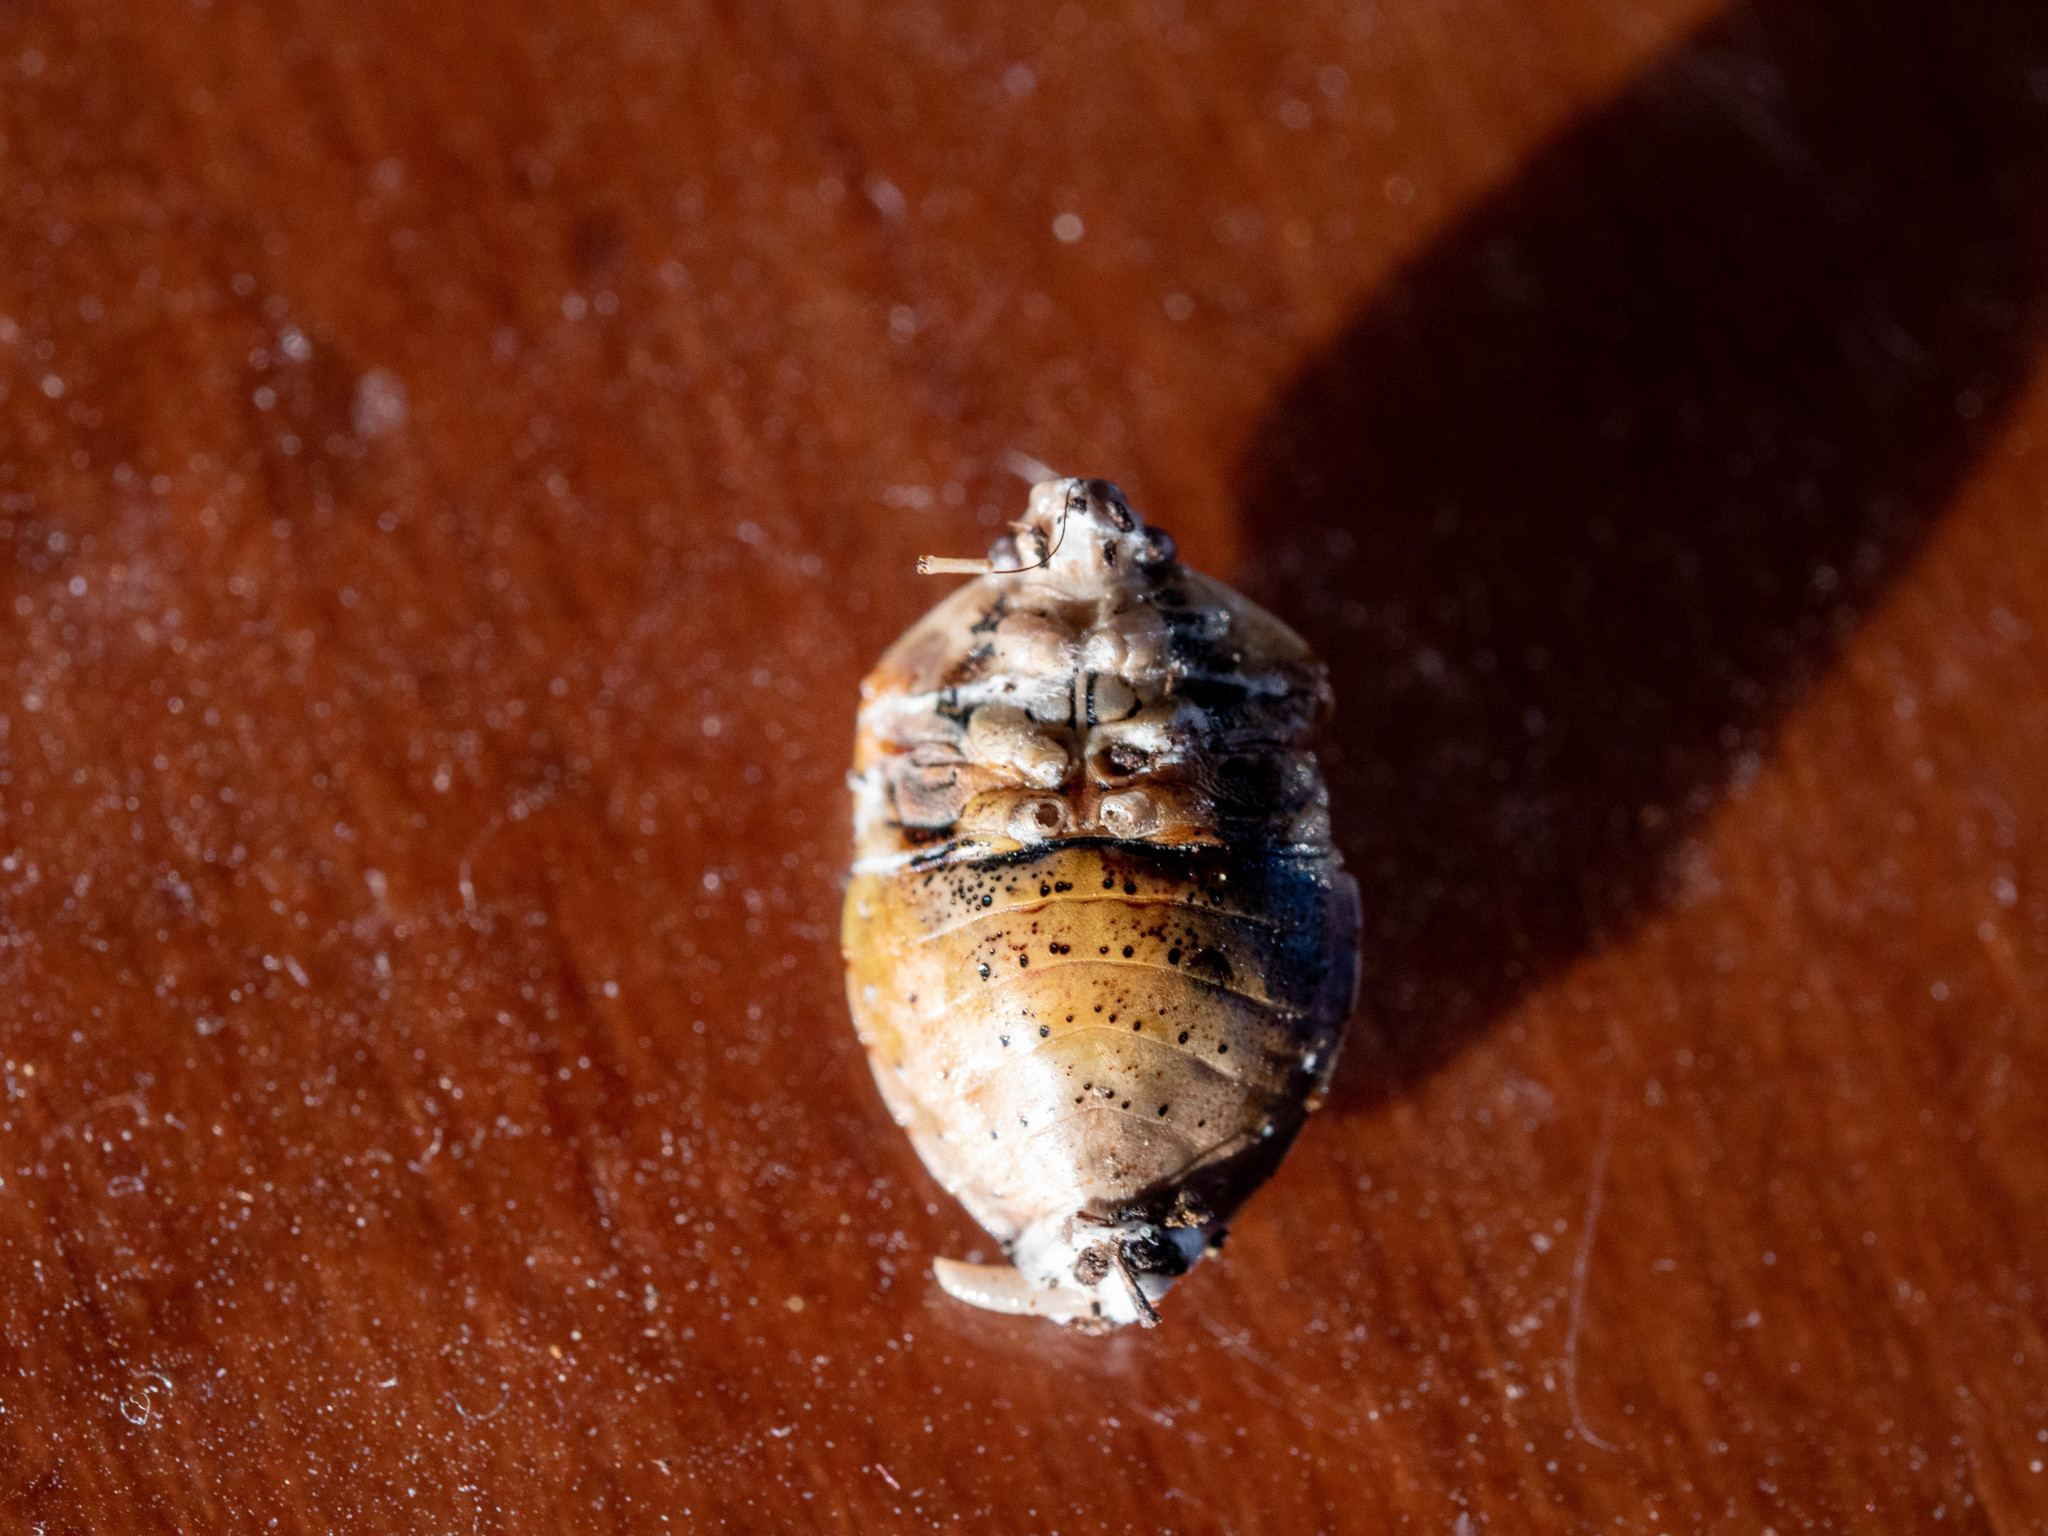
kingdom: Animalia
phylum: Arthropoda
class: Insecta
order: Hemiptera
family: Pentatomidae
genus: Monteithiella
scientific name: Monteithiella
